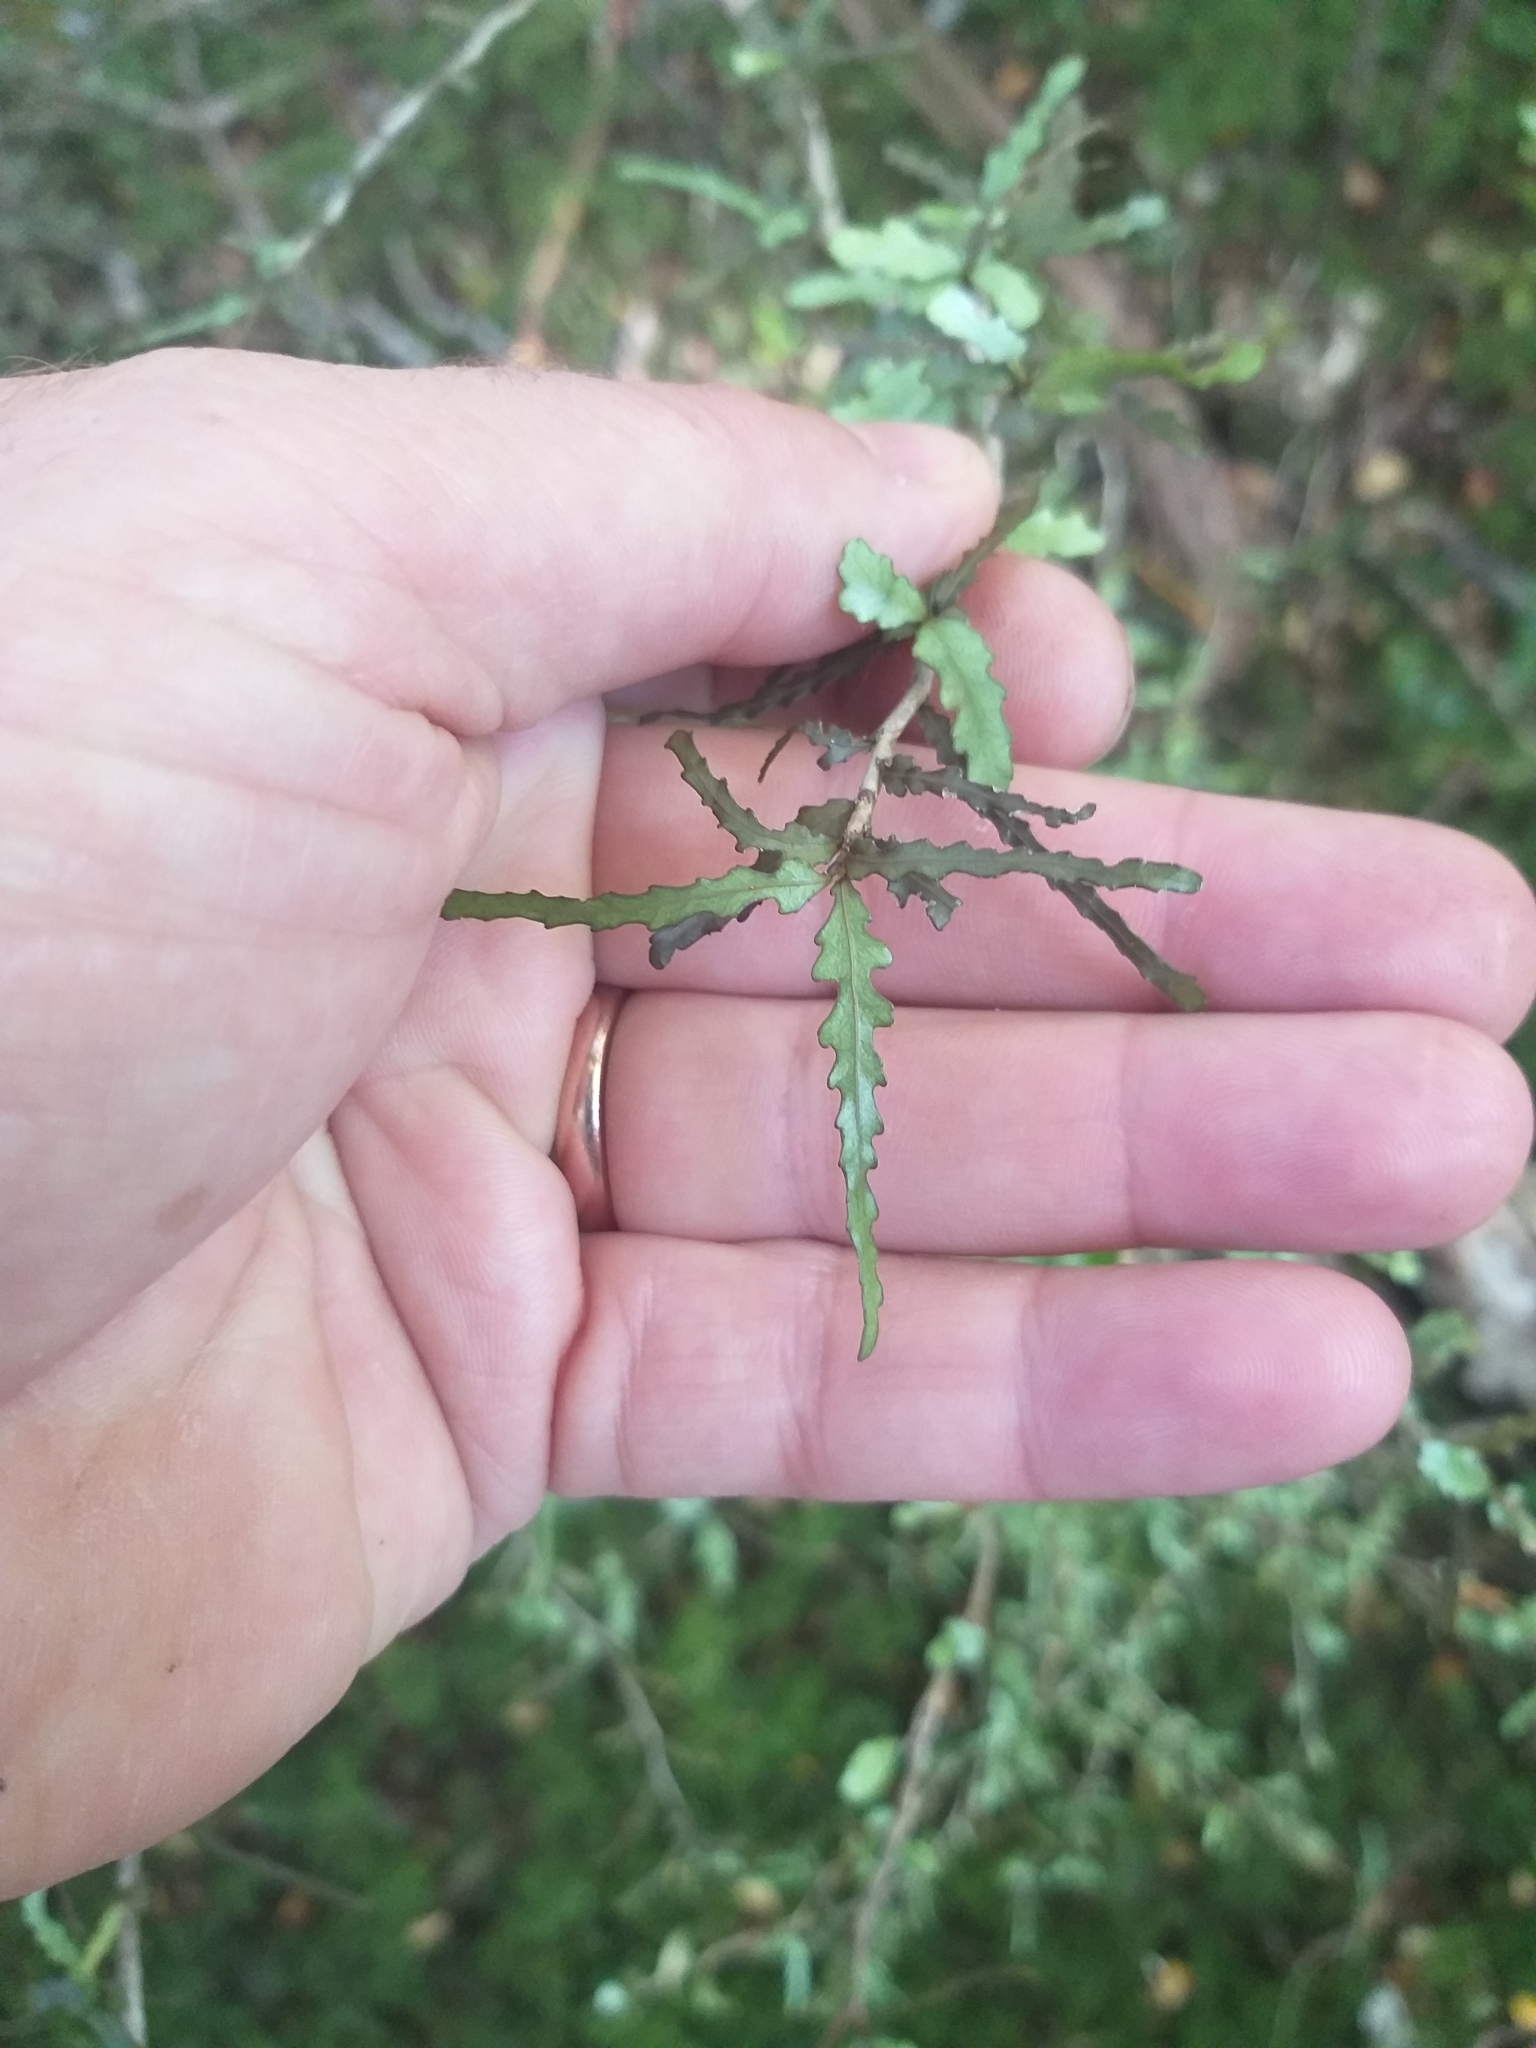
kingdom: Plantae
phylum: Tracheophyta
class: Magnoliopsida
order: Oxalidales
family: Elaeocarpaceae
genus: Elaeocarpus
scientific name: Elaeocarpus hookerianus
